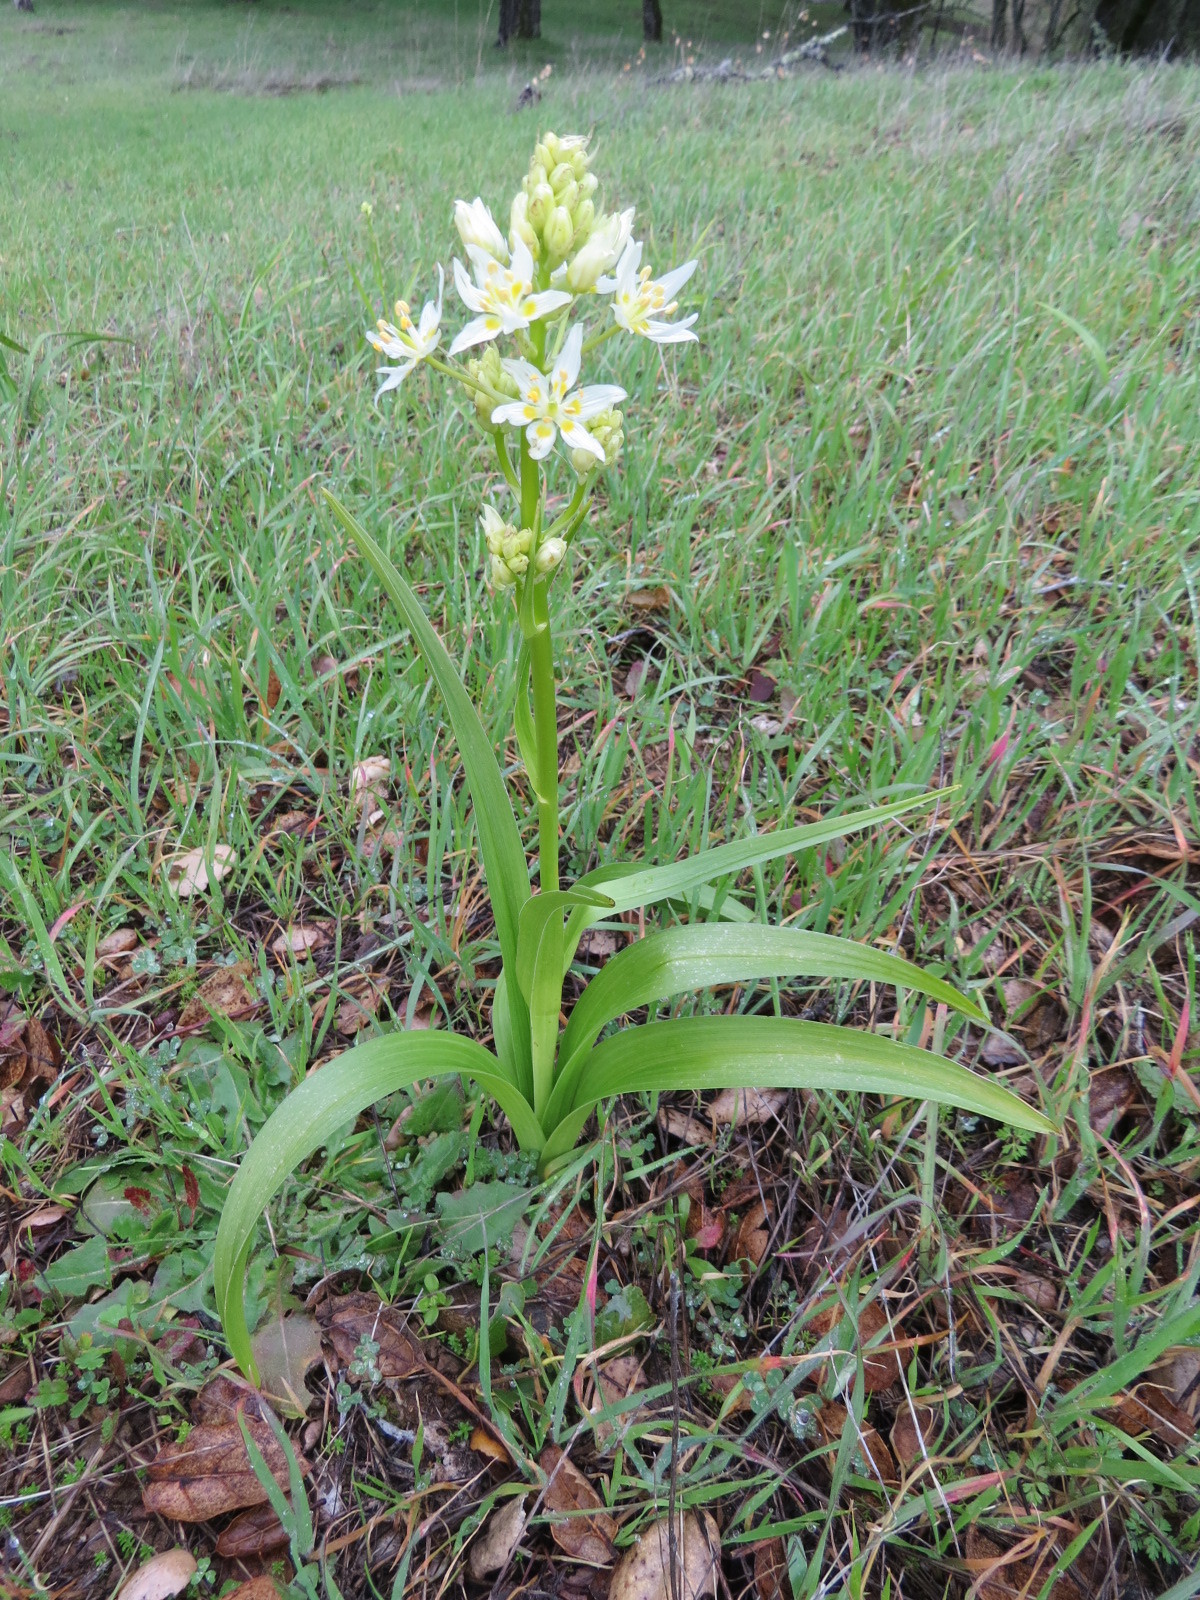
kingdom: Plantae
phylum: Tracheophyta
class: Liliopsida
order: Liliales
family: Melanthiaceae
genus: Toxicoscordion
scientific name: Toxicoscordion fremontii
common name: Fremont's death camas
